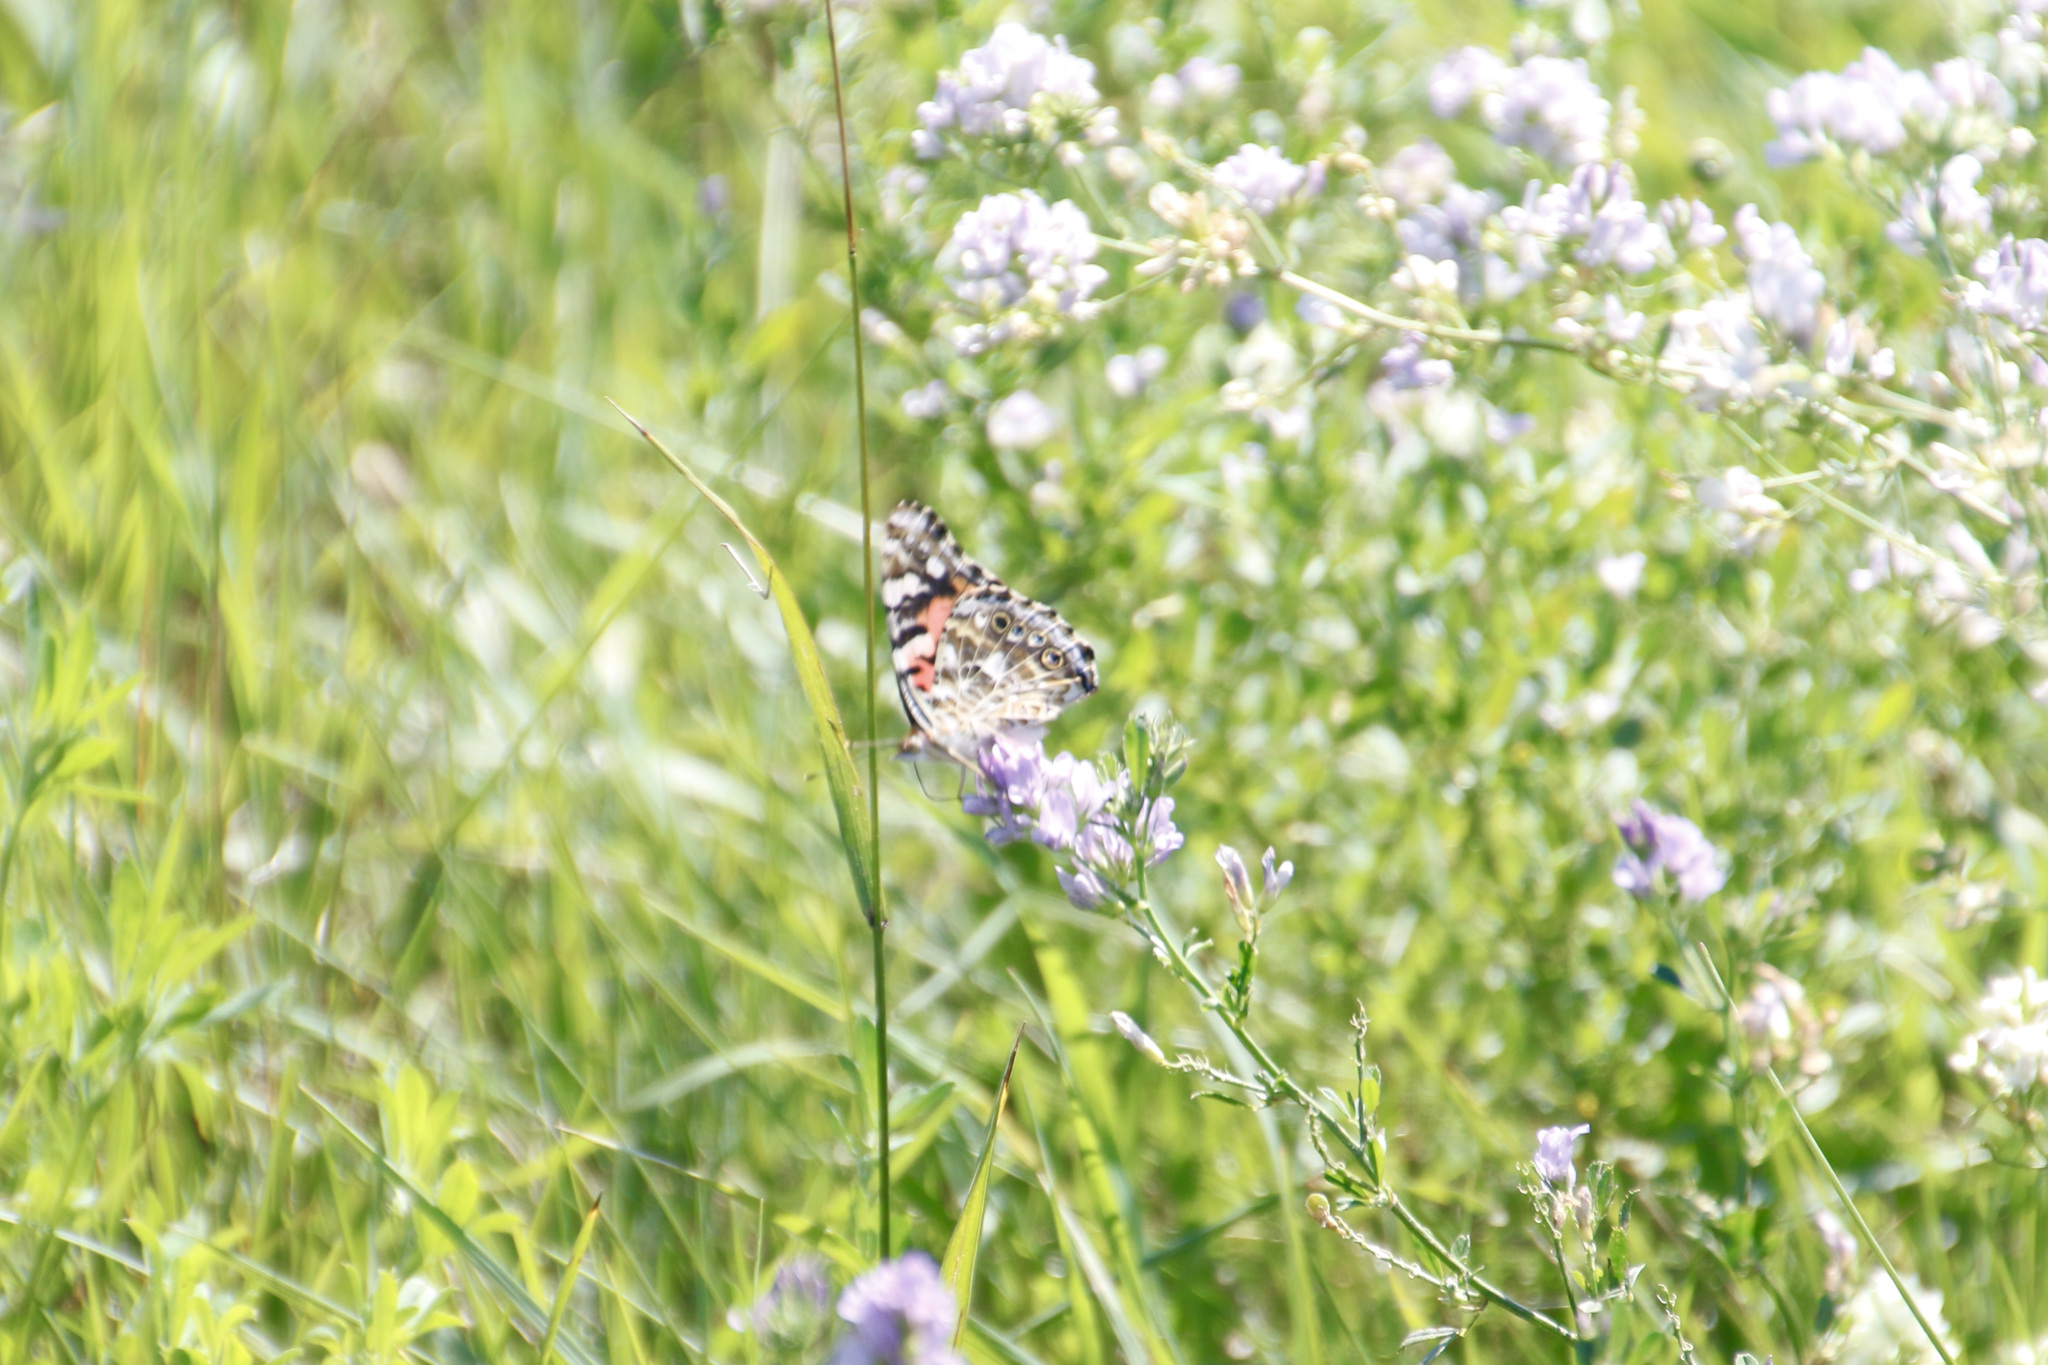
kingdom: Animalia
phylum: Arthropoda
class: Insecta
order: Lepidoptera
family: Nymphalidae
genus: Vanessa
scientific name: Vanessa cardui
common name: Painted lady
